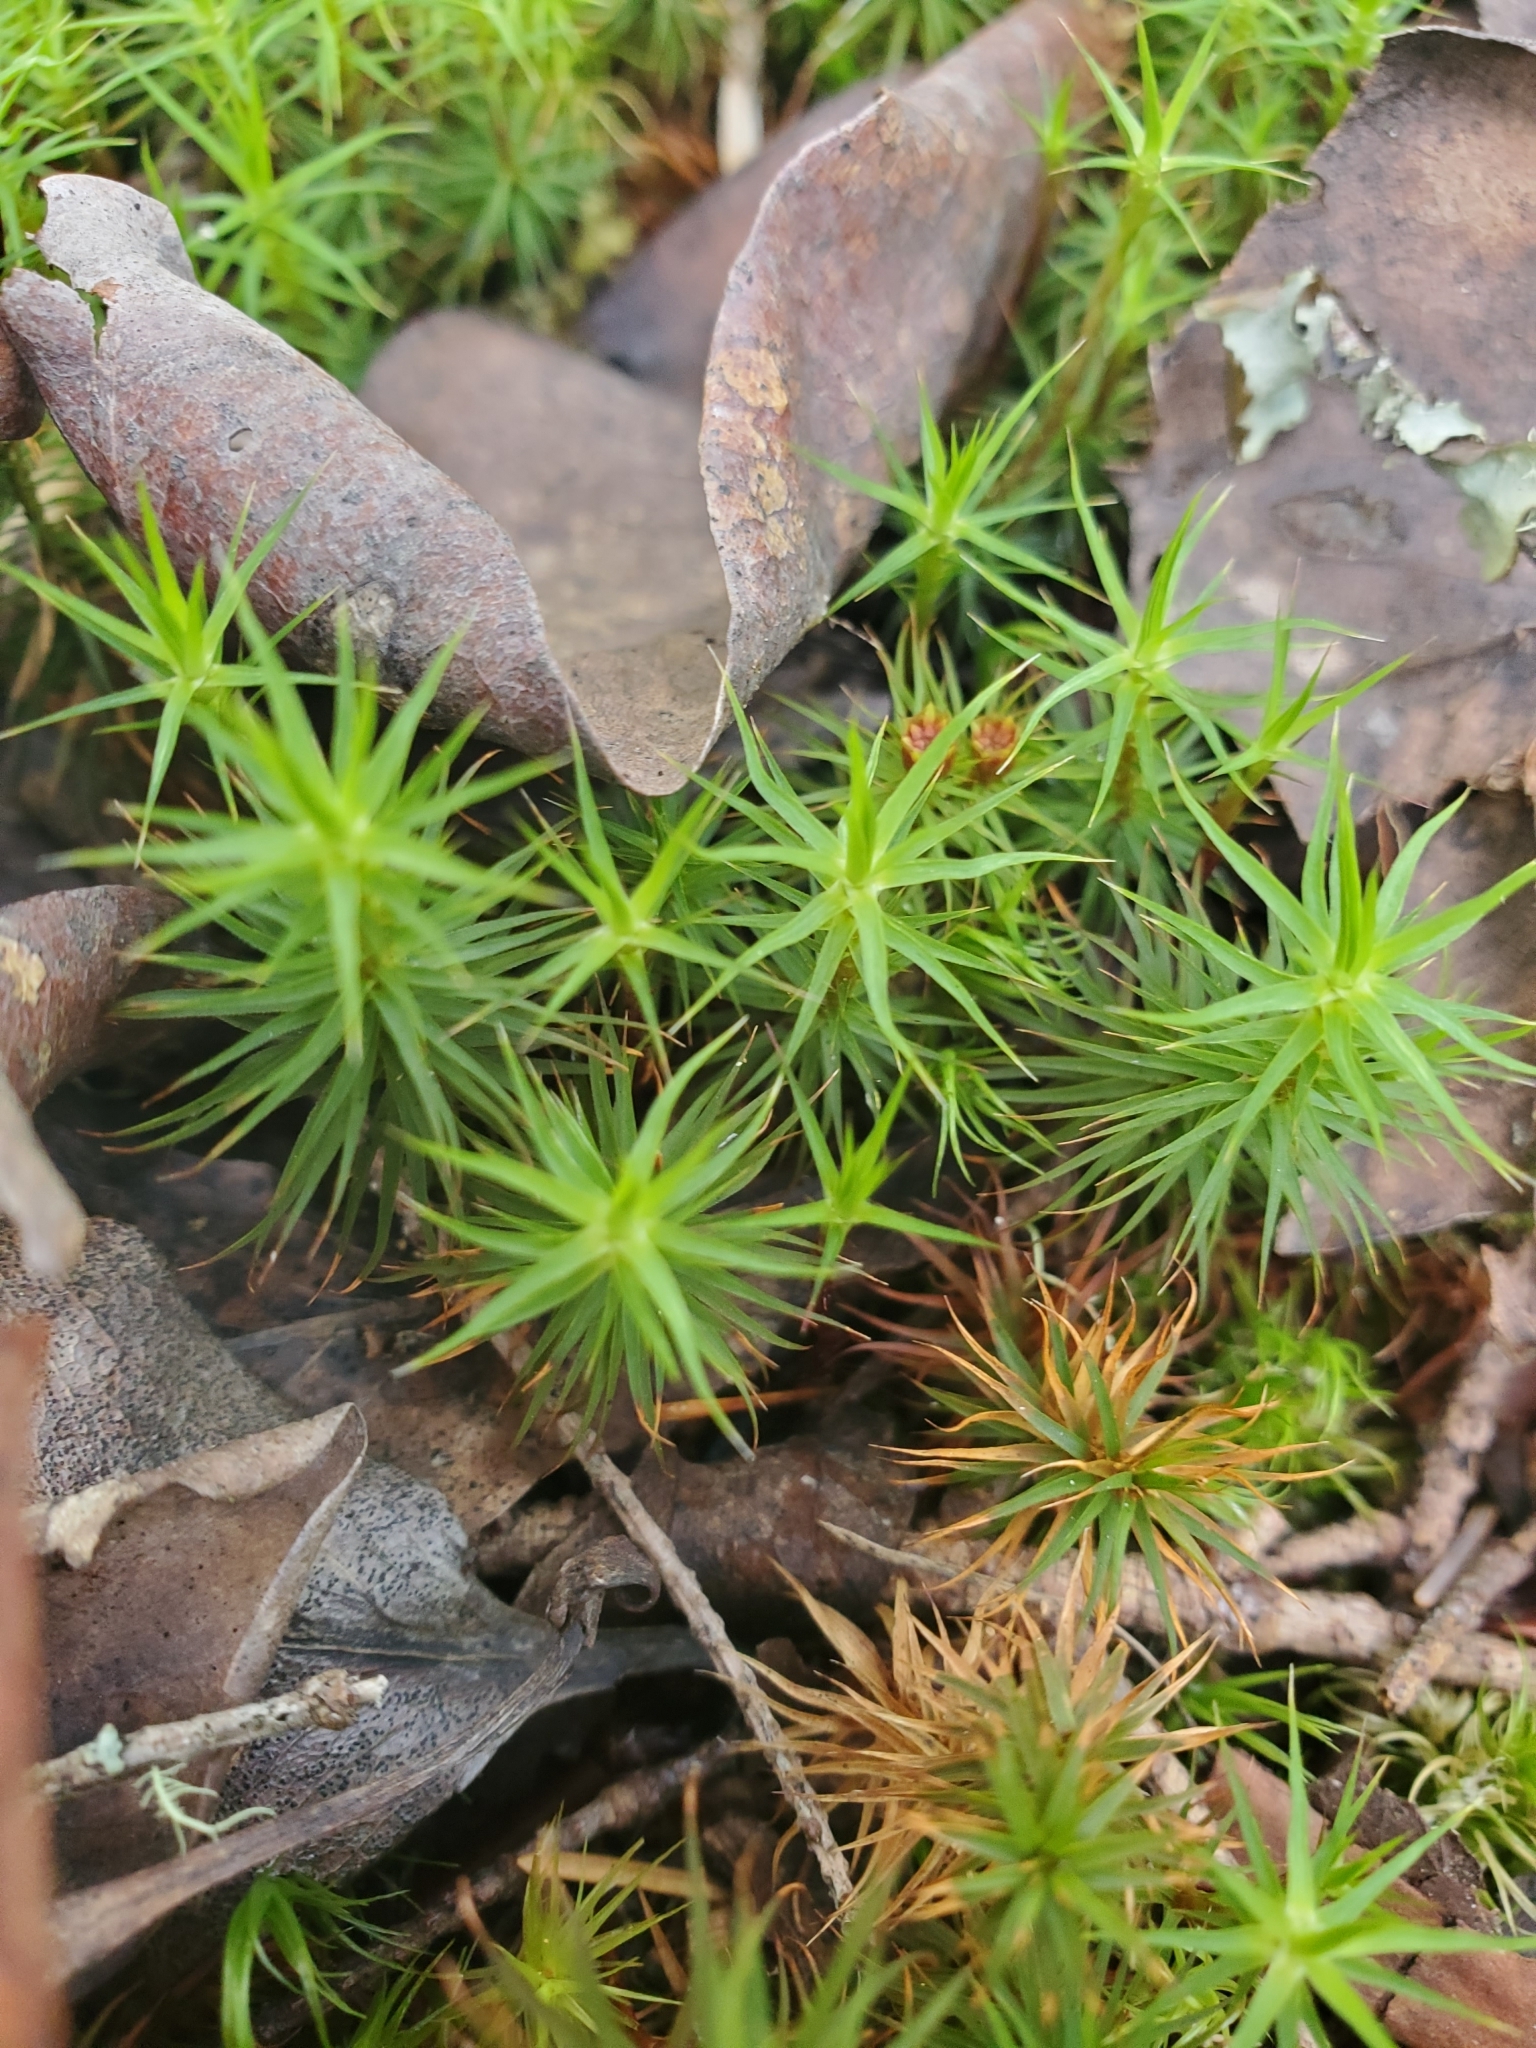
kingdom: Plantae
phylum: Bryophyta
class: Polytrichopsida
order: Polytrichales
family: Polytrichaceae
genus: Polytrichum
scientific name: Polytrichum commune
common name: Common haircap
